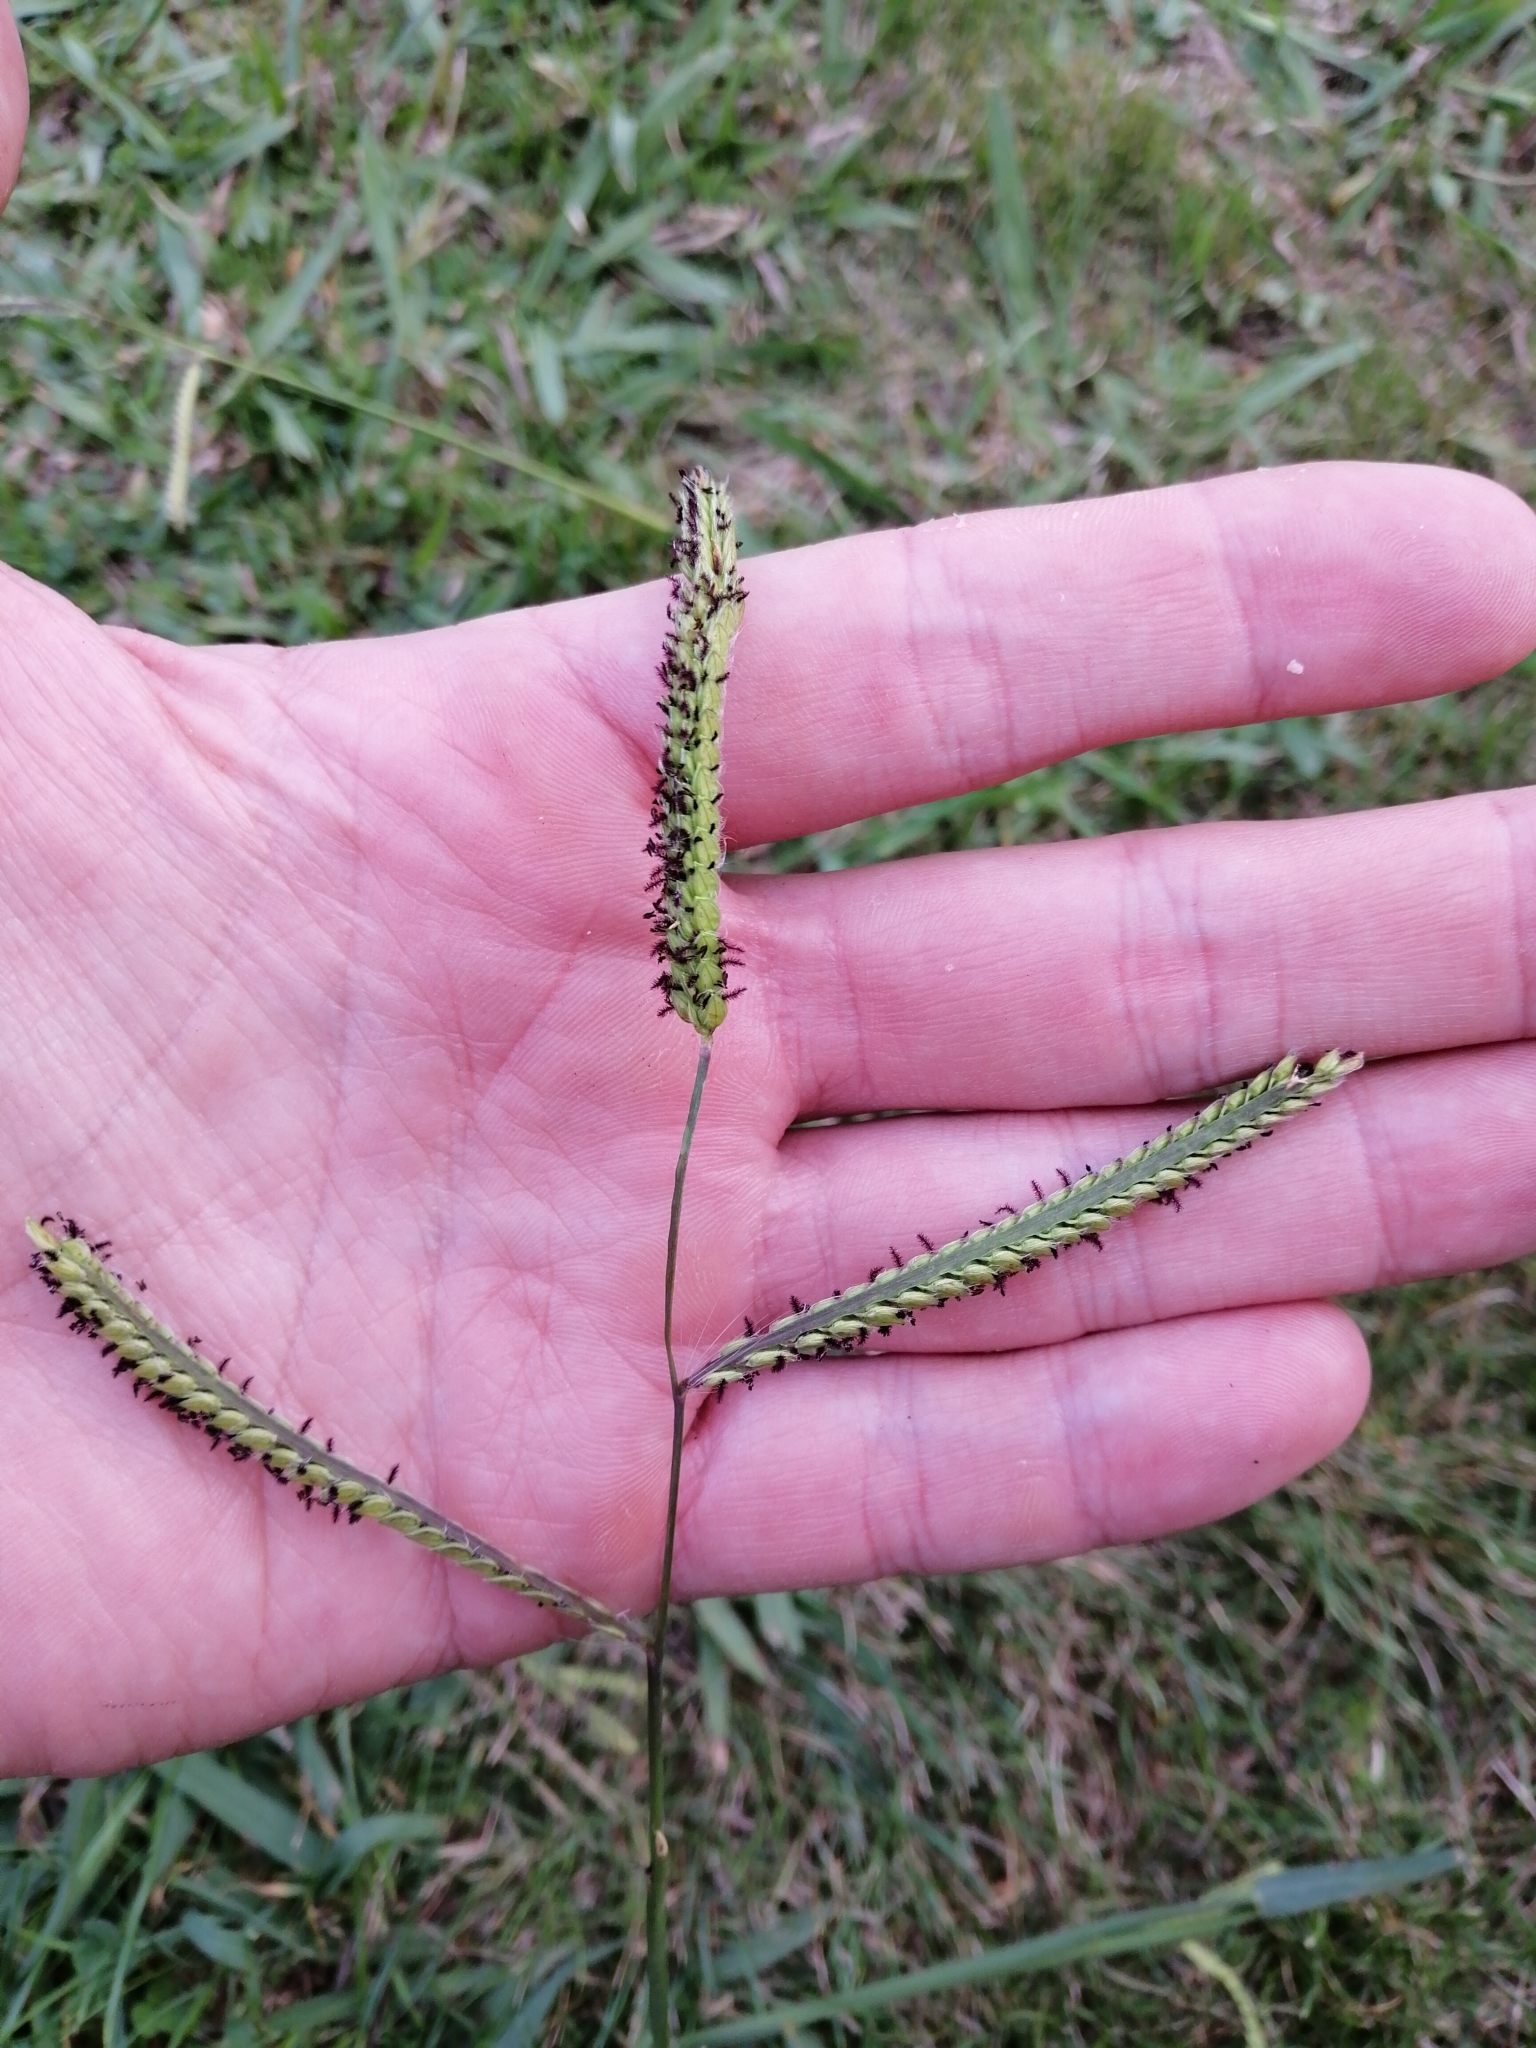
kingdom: Plantae
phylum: Tracheophyta
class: Liliopsida
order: Poales
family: Poaceae
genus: Paspalum
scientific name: Paspalum dilatatum
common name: Dallisgrass
